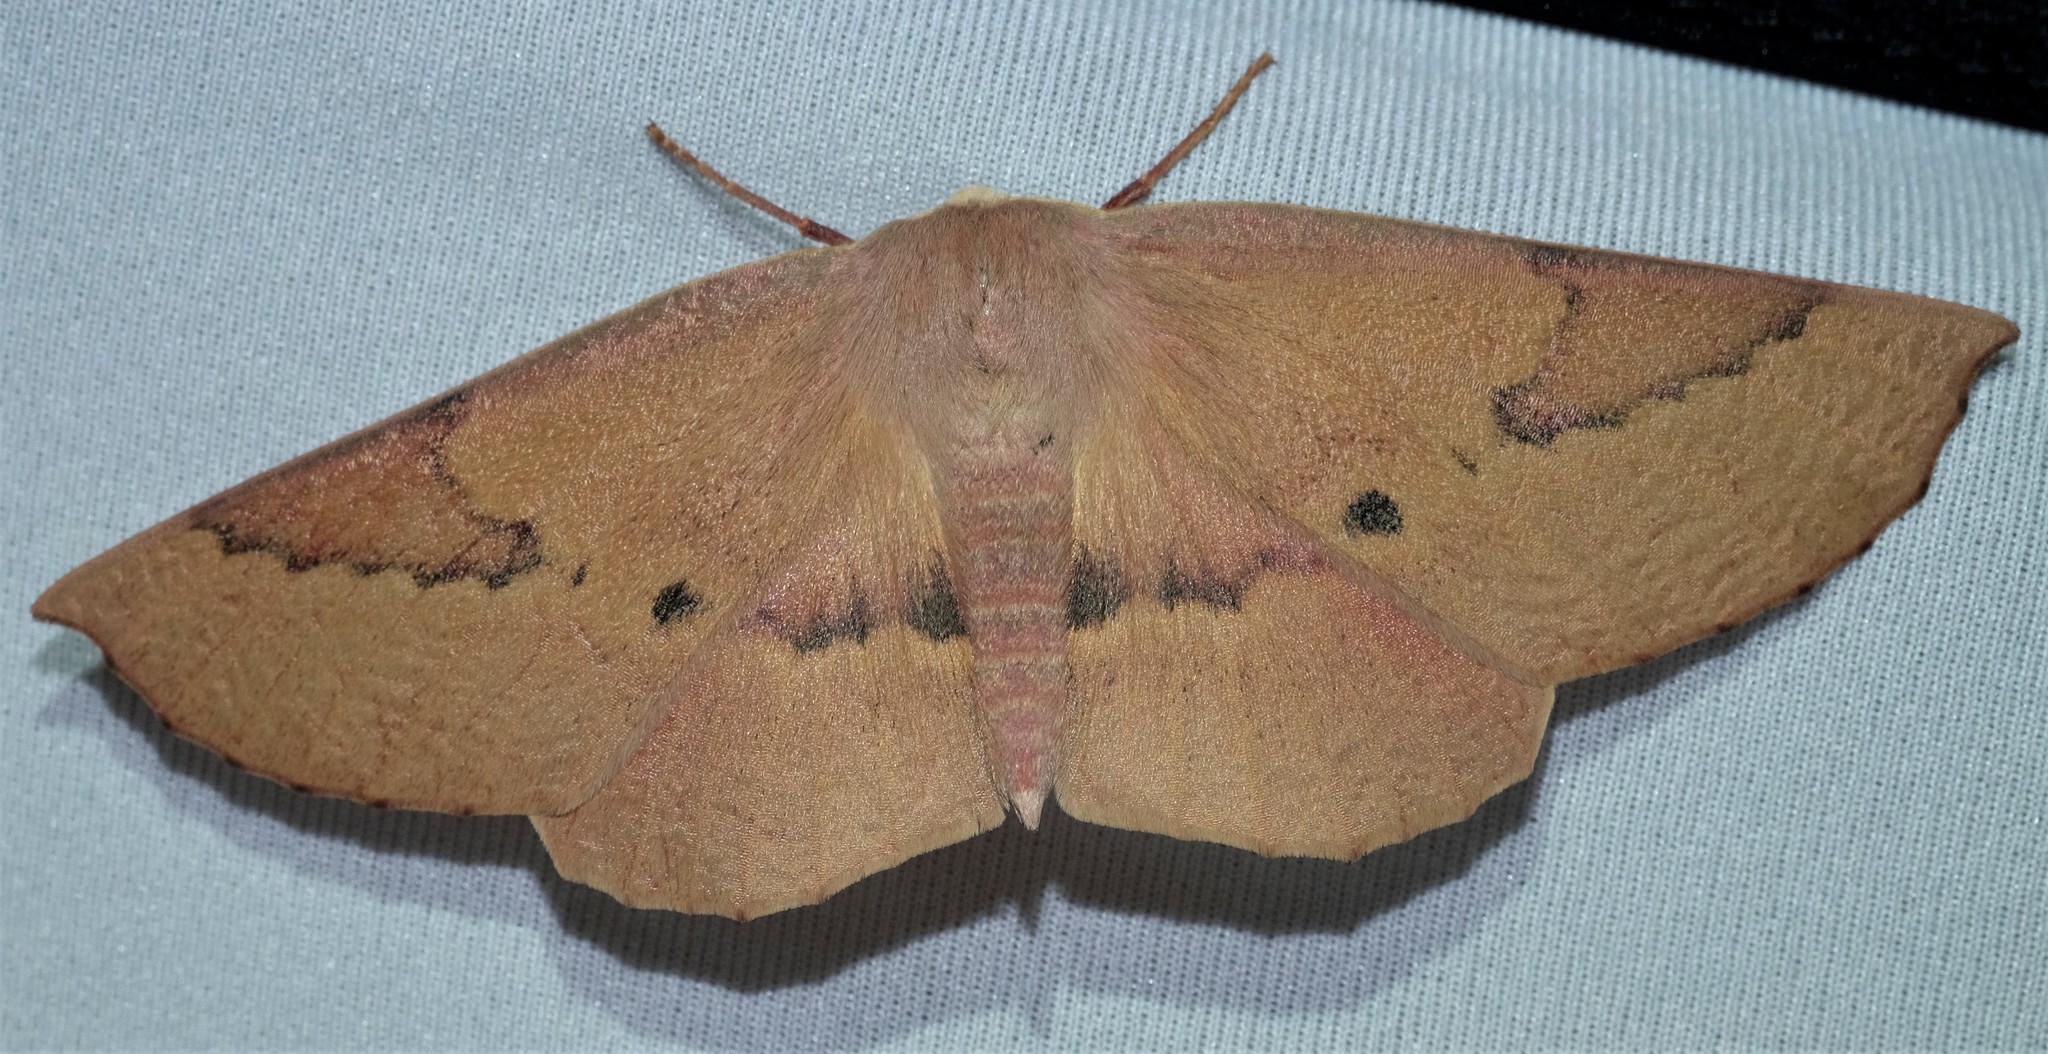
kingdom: Animalia
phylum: Arthropoda
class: Insecta
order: Lepidoptera
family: Geometridae
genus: Monoctenia
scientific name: Monoctenia falernaria
